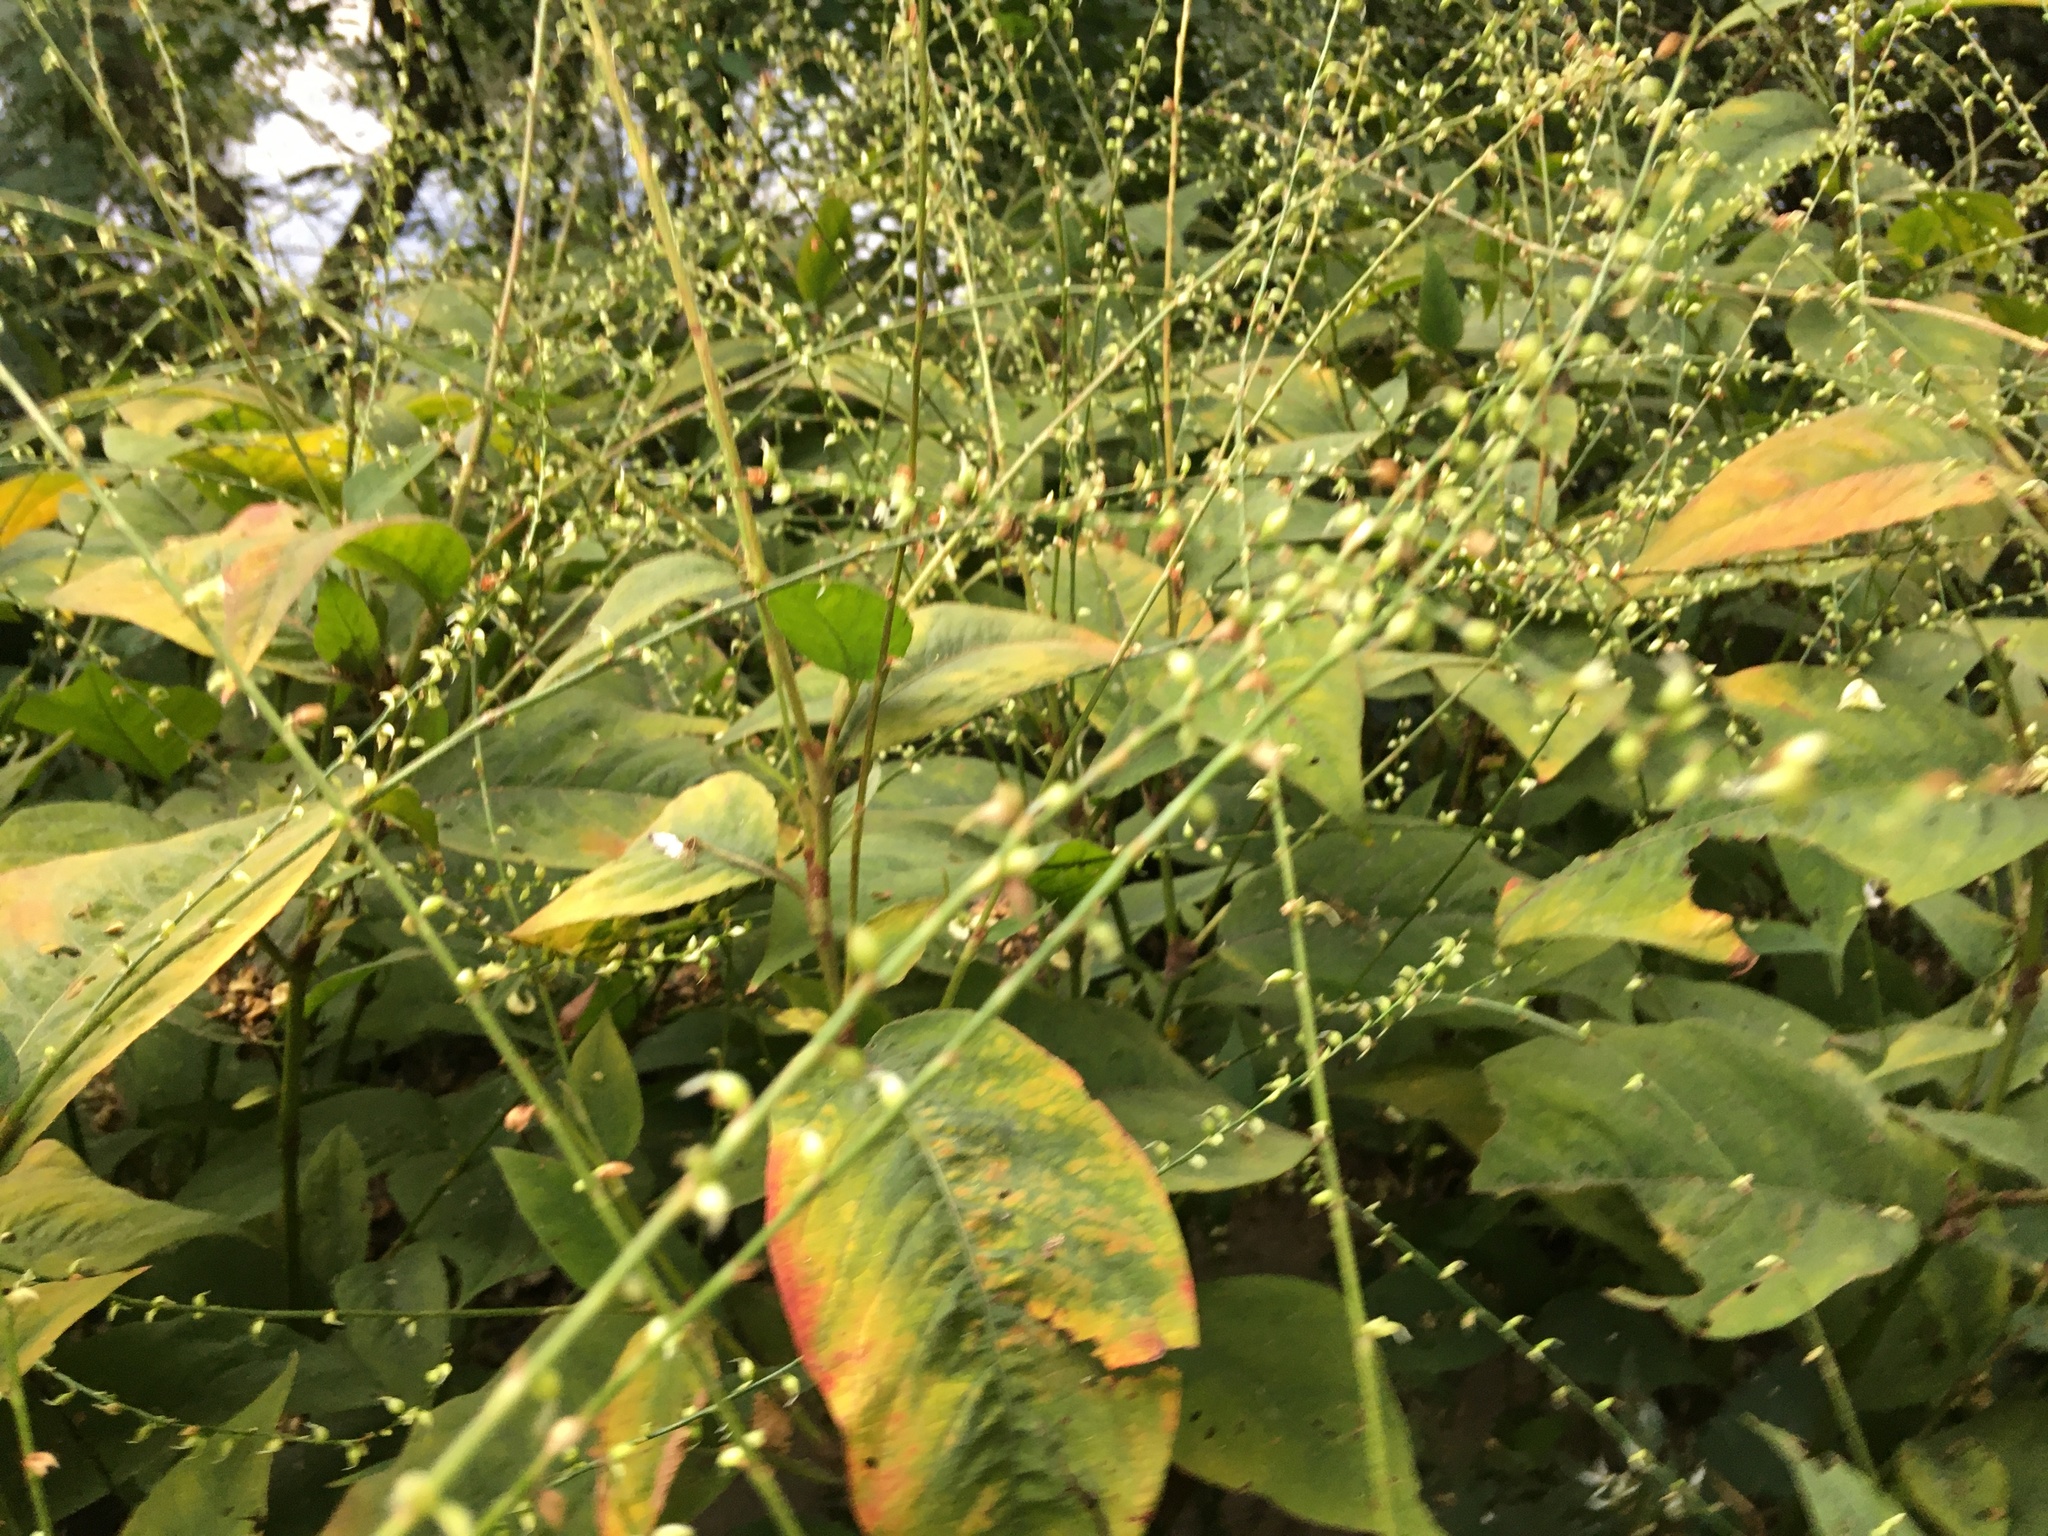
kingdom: Plantae
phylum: Tracheophyta
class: Magnoliopsida
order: Caryophyllales
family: Polygonaceae
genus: Persicaria
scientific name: Persicaria virginiana
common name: Jumpseed
